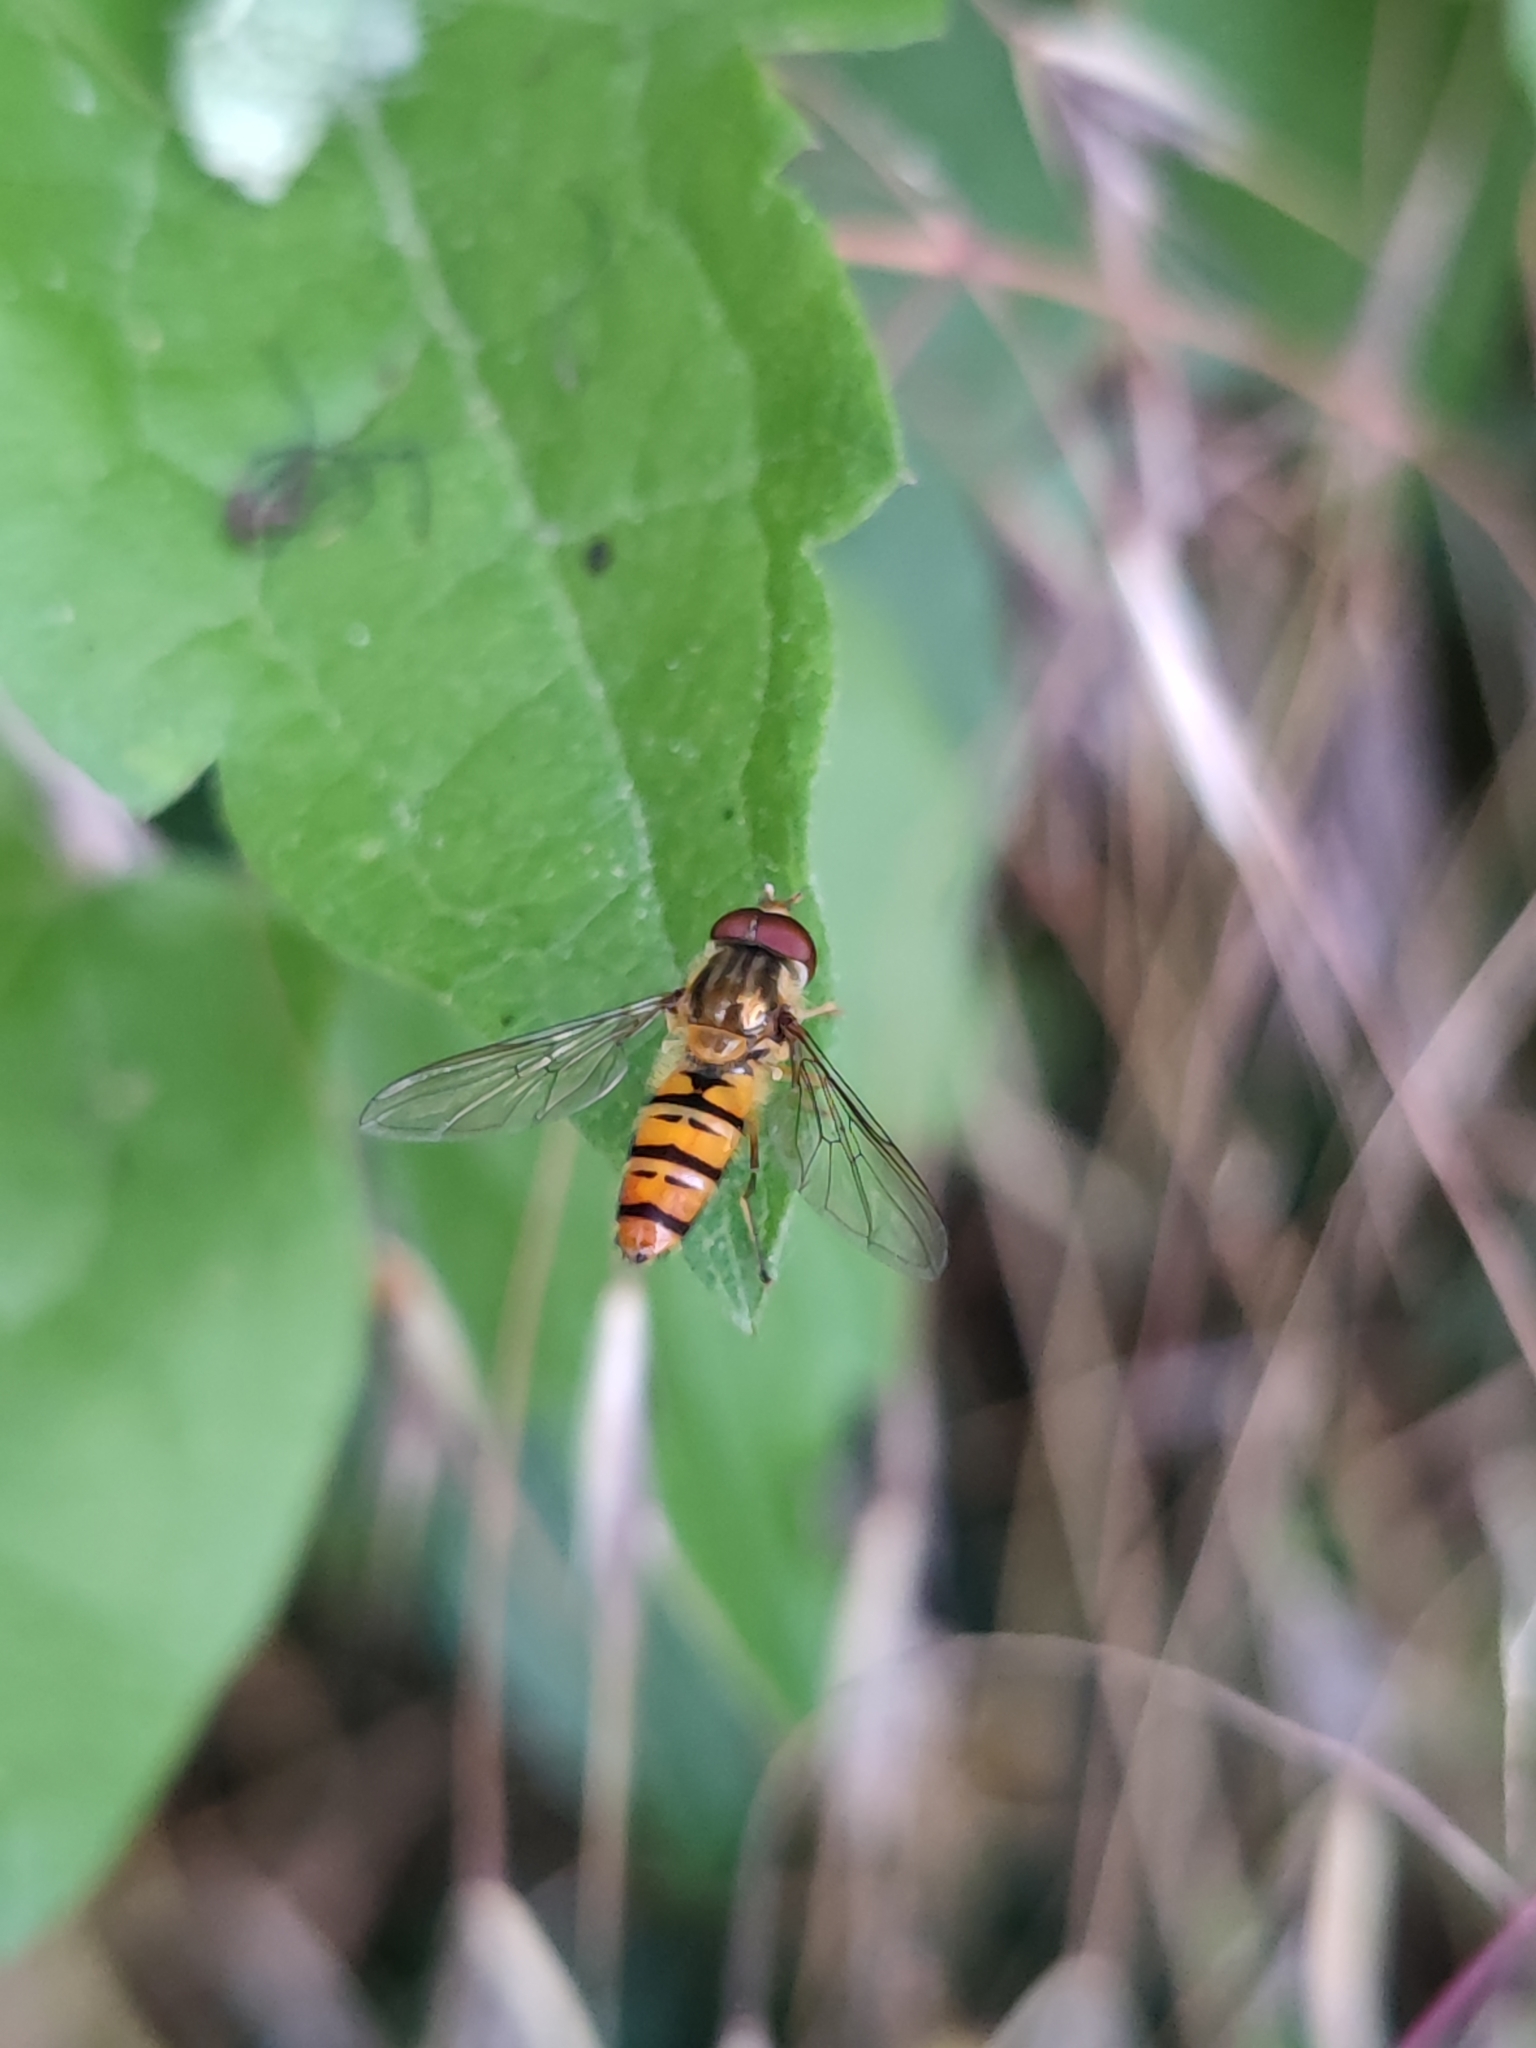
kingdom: Animalia
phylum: Arthropoda
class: Insecta
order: Diptera
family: Syrphidae
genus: Episyrphus
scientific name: Episyrphus balteatus
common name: Marmalade hoverfly
